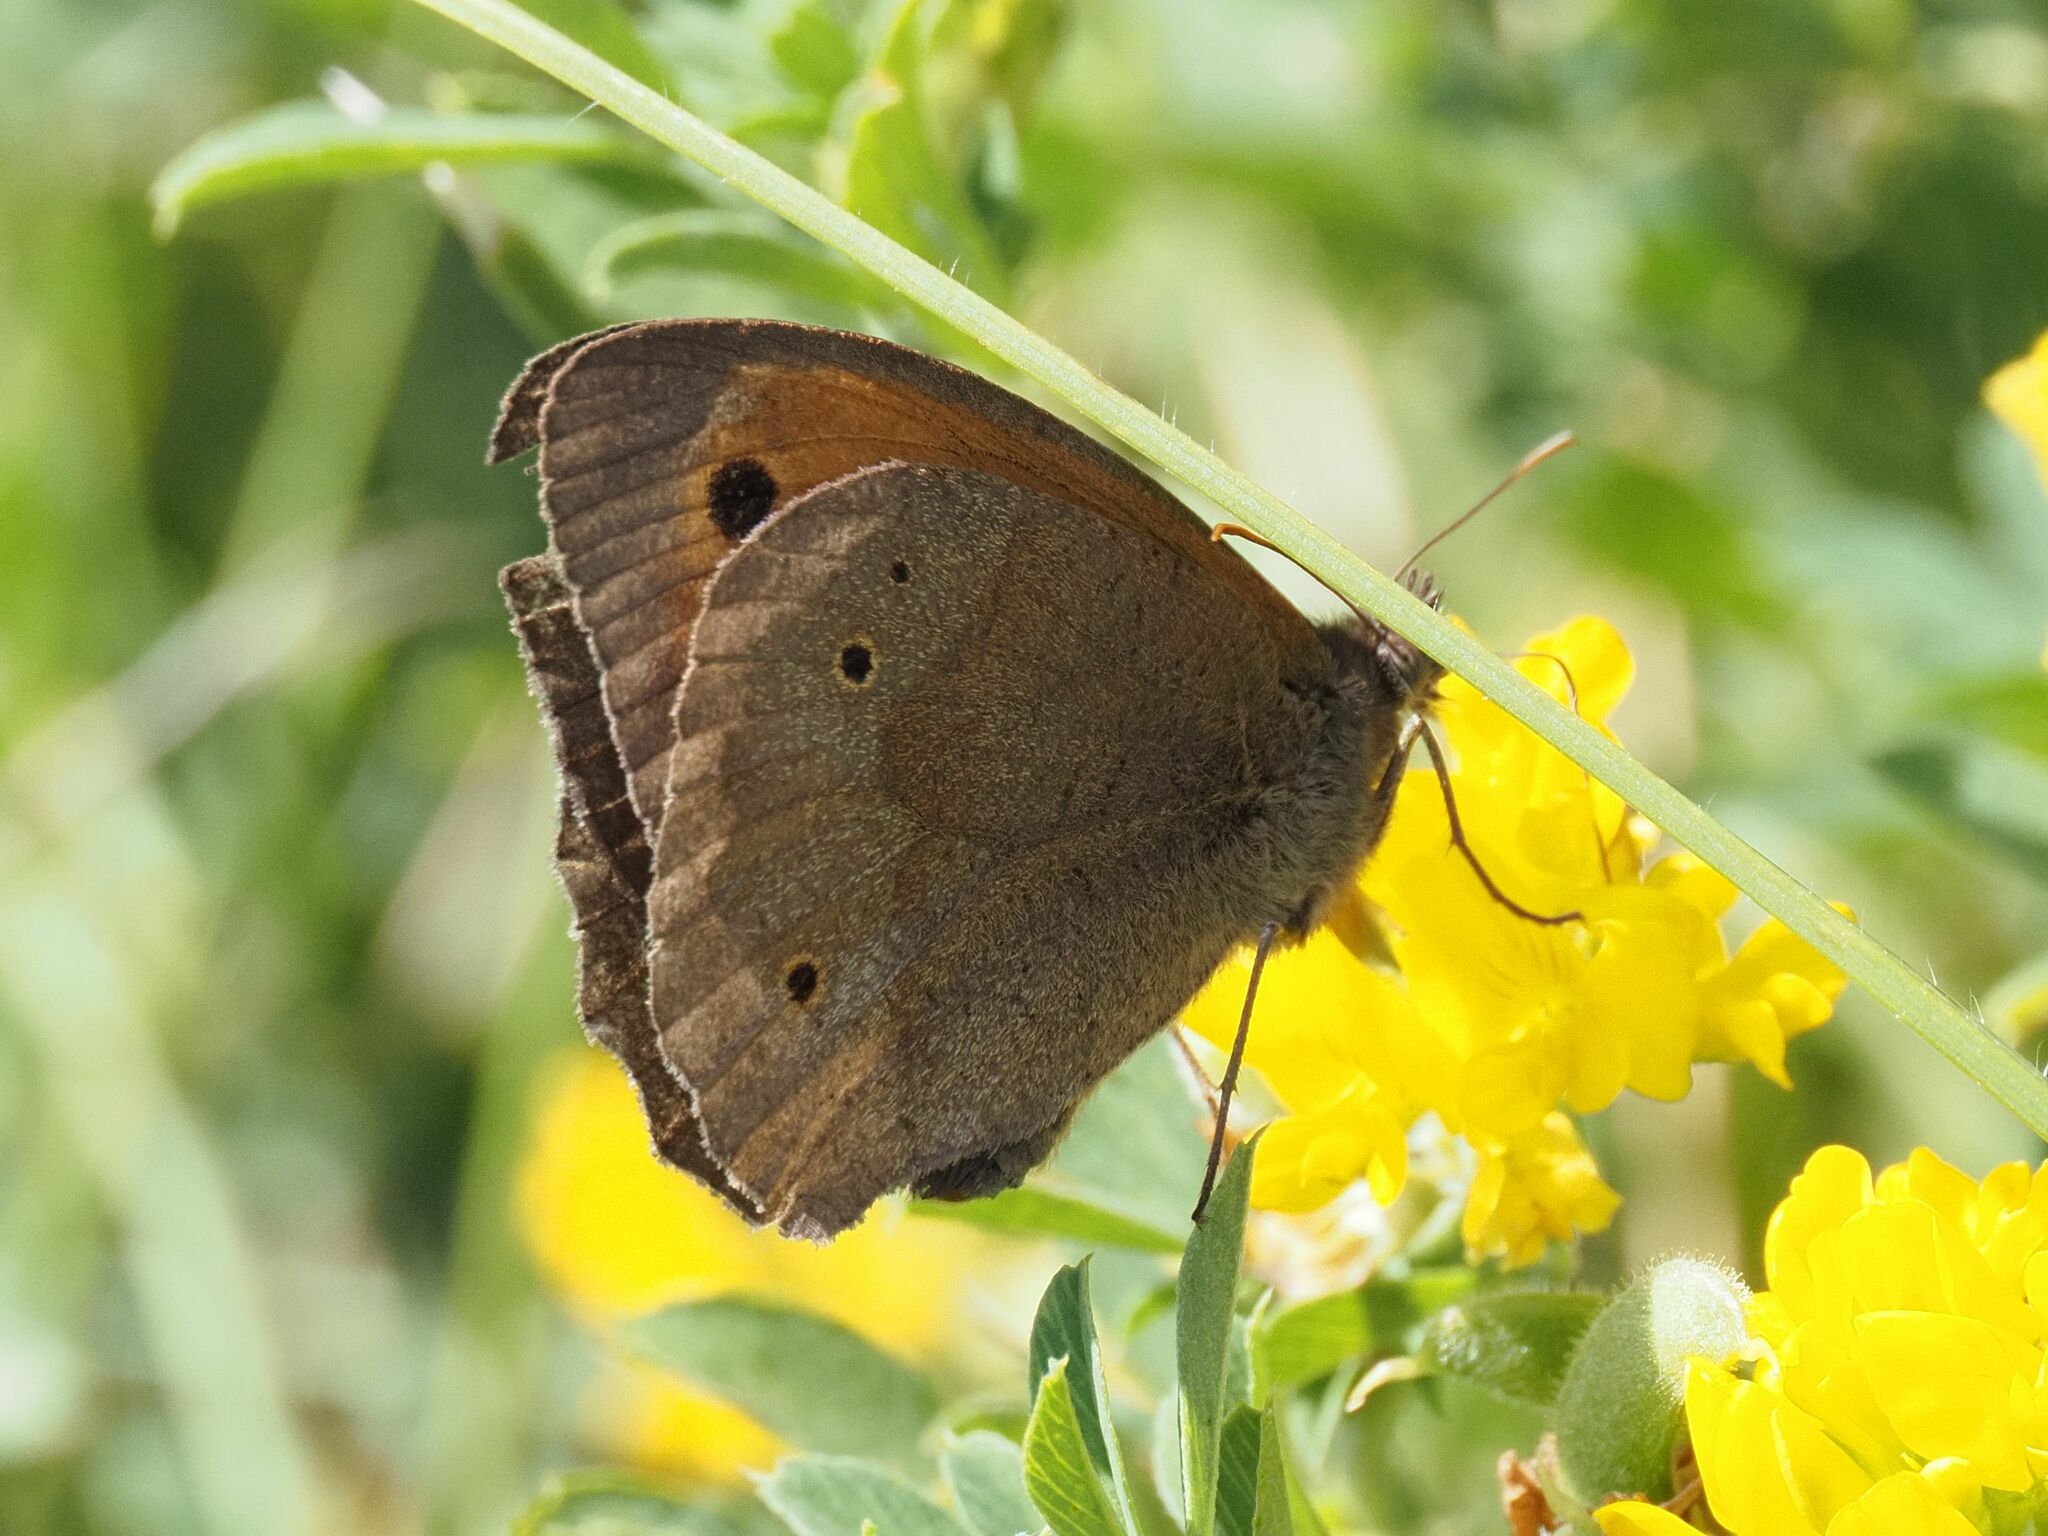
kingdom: Animalia
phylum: Arthropoda
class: Insecta
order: Lepidoptera
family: Nymphalidae
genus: Maniola
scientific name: Maniola jurtina
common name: Meadow brown
